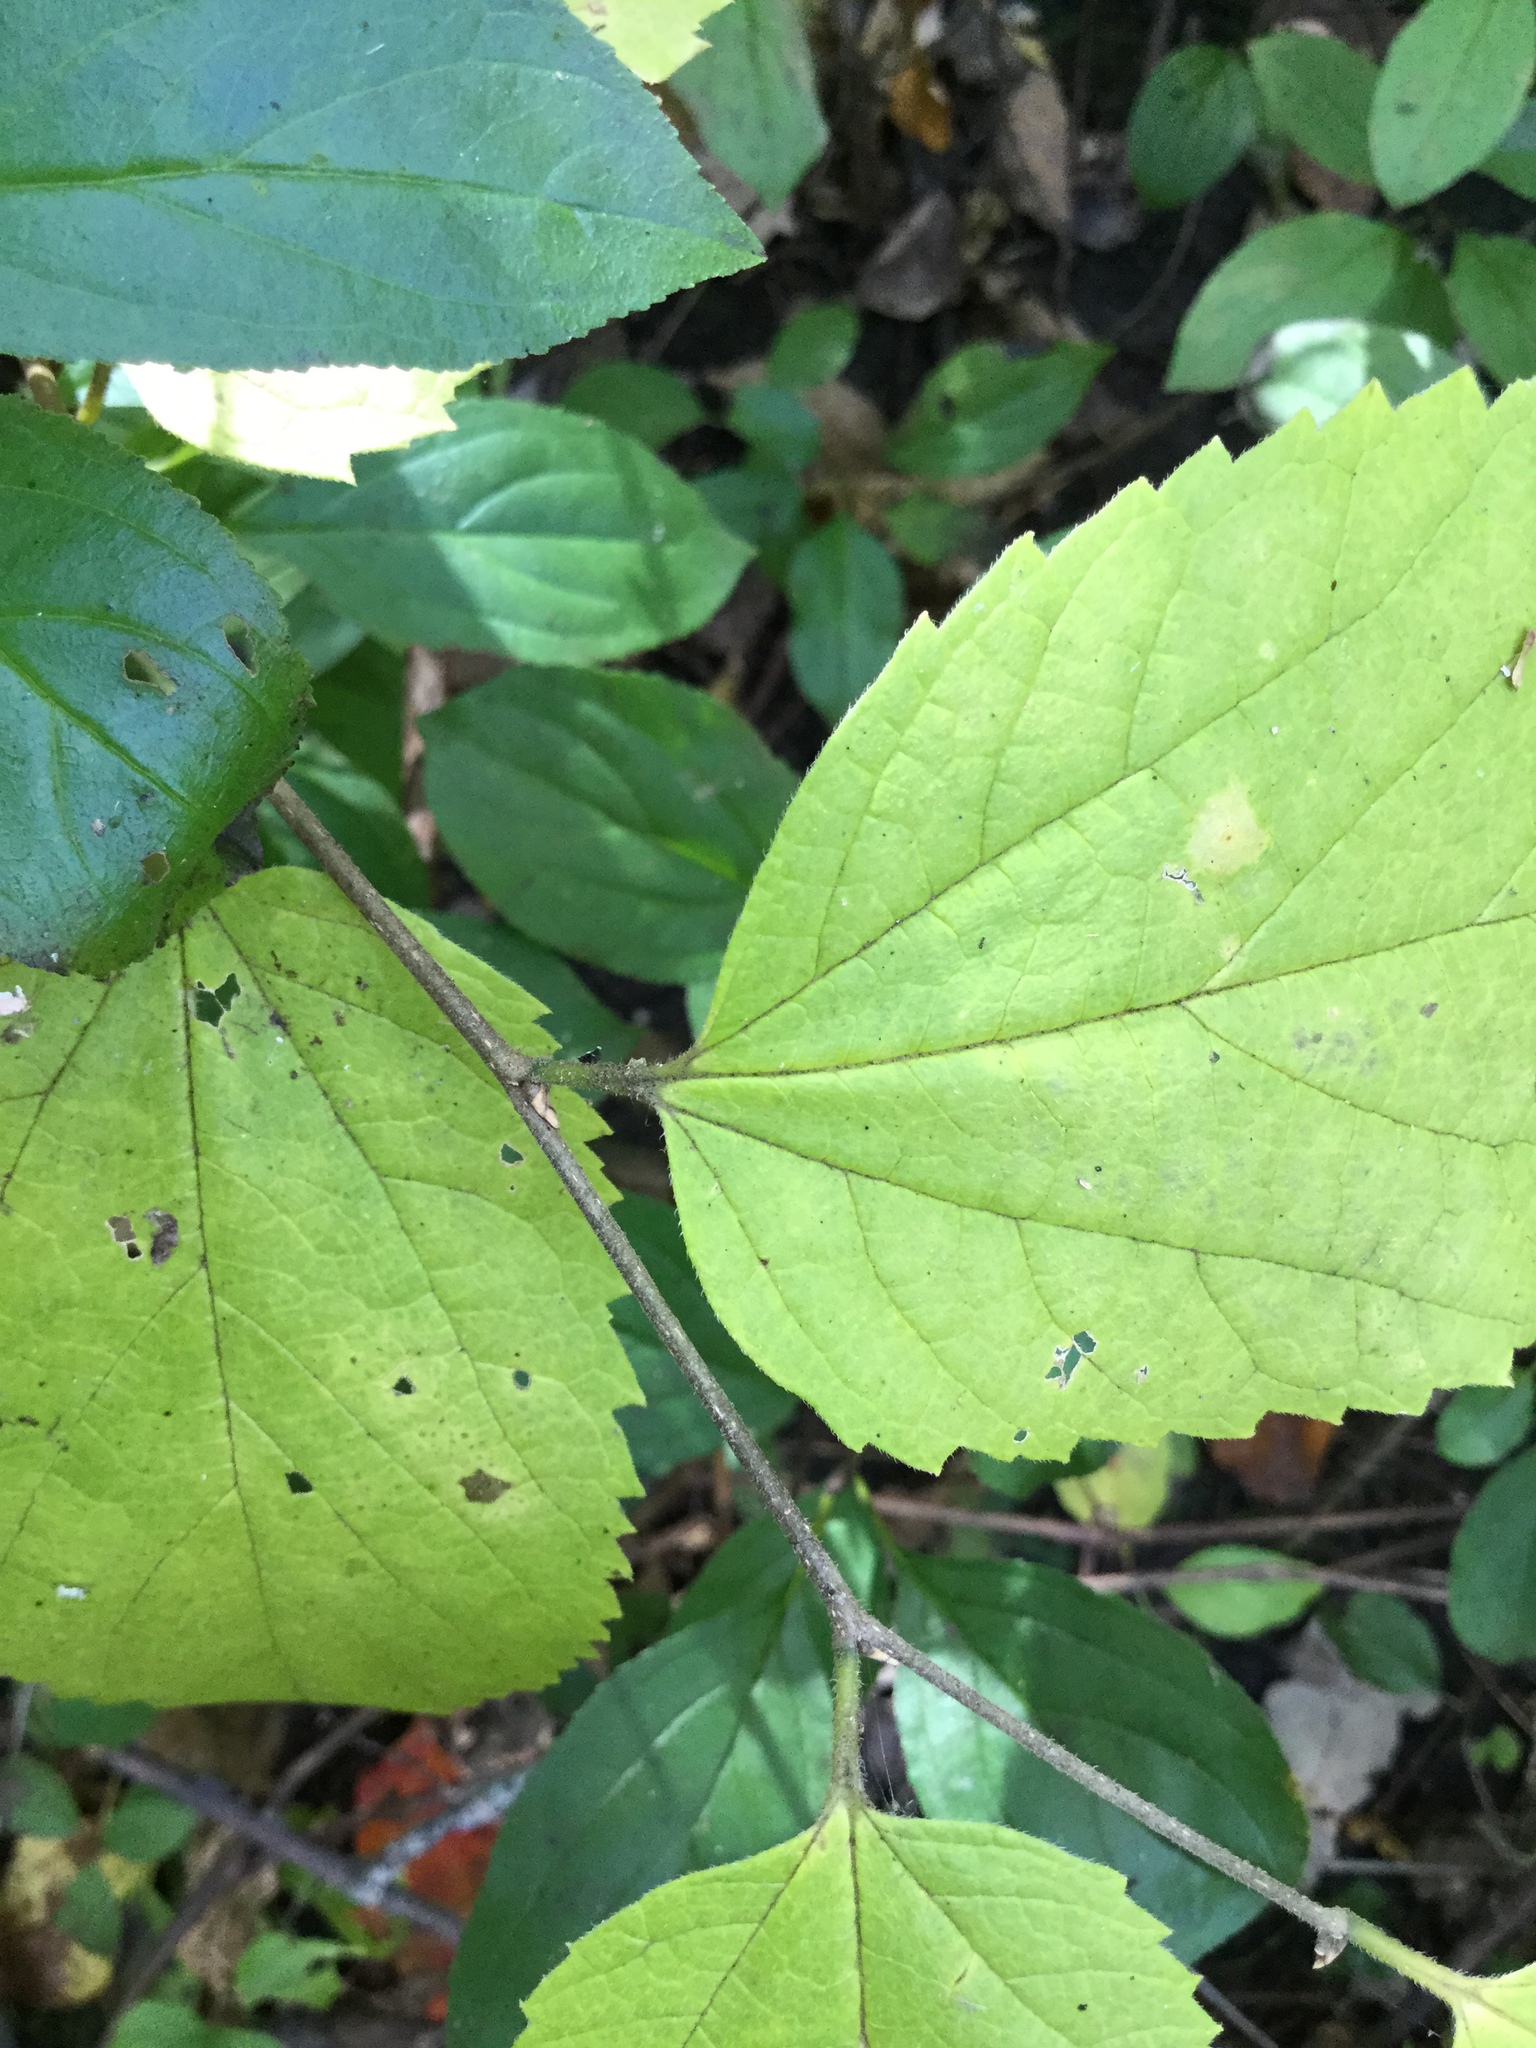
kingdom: Plantae
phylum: Tracheophyta
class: Magnoliopsida
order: Rosales
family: Cannabaceae
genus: Celtis
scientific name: Celtis occidentalis
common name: Common hackberry
